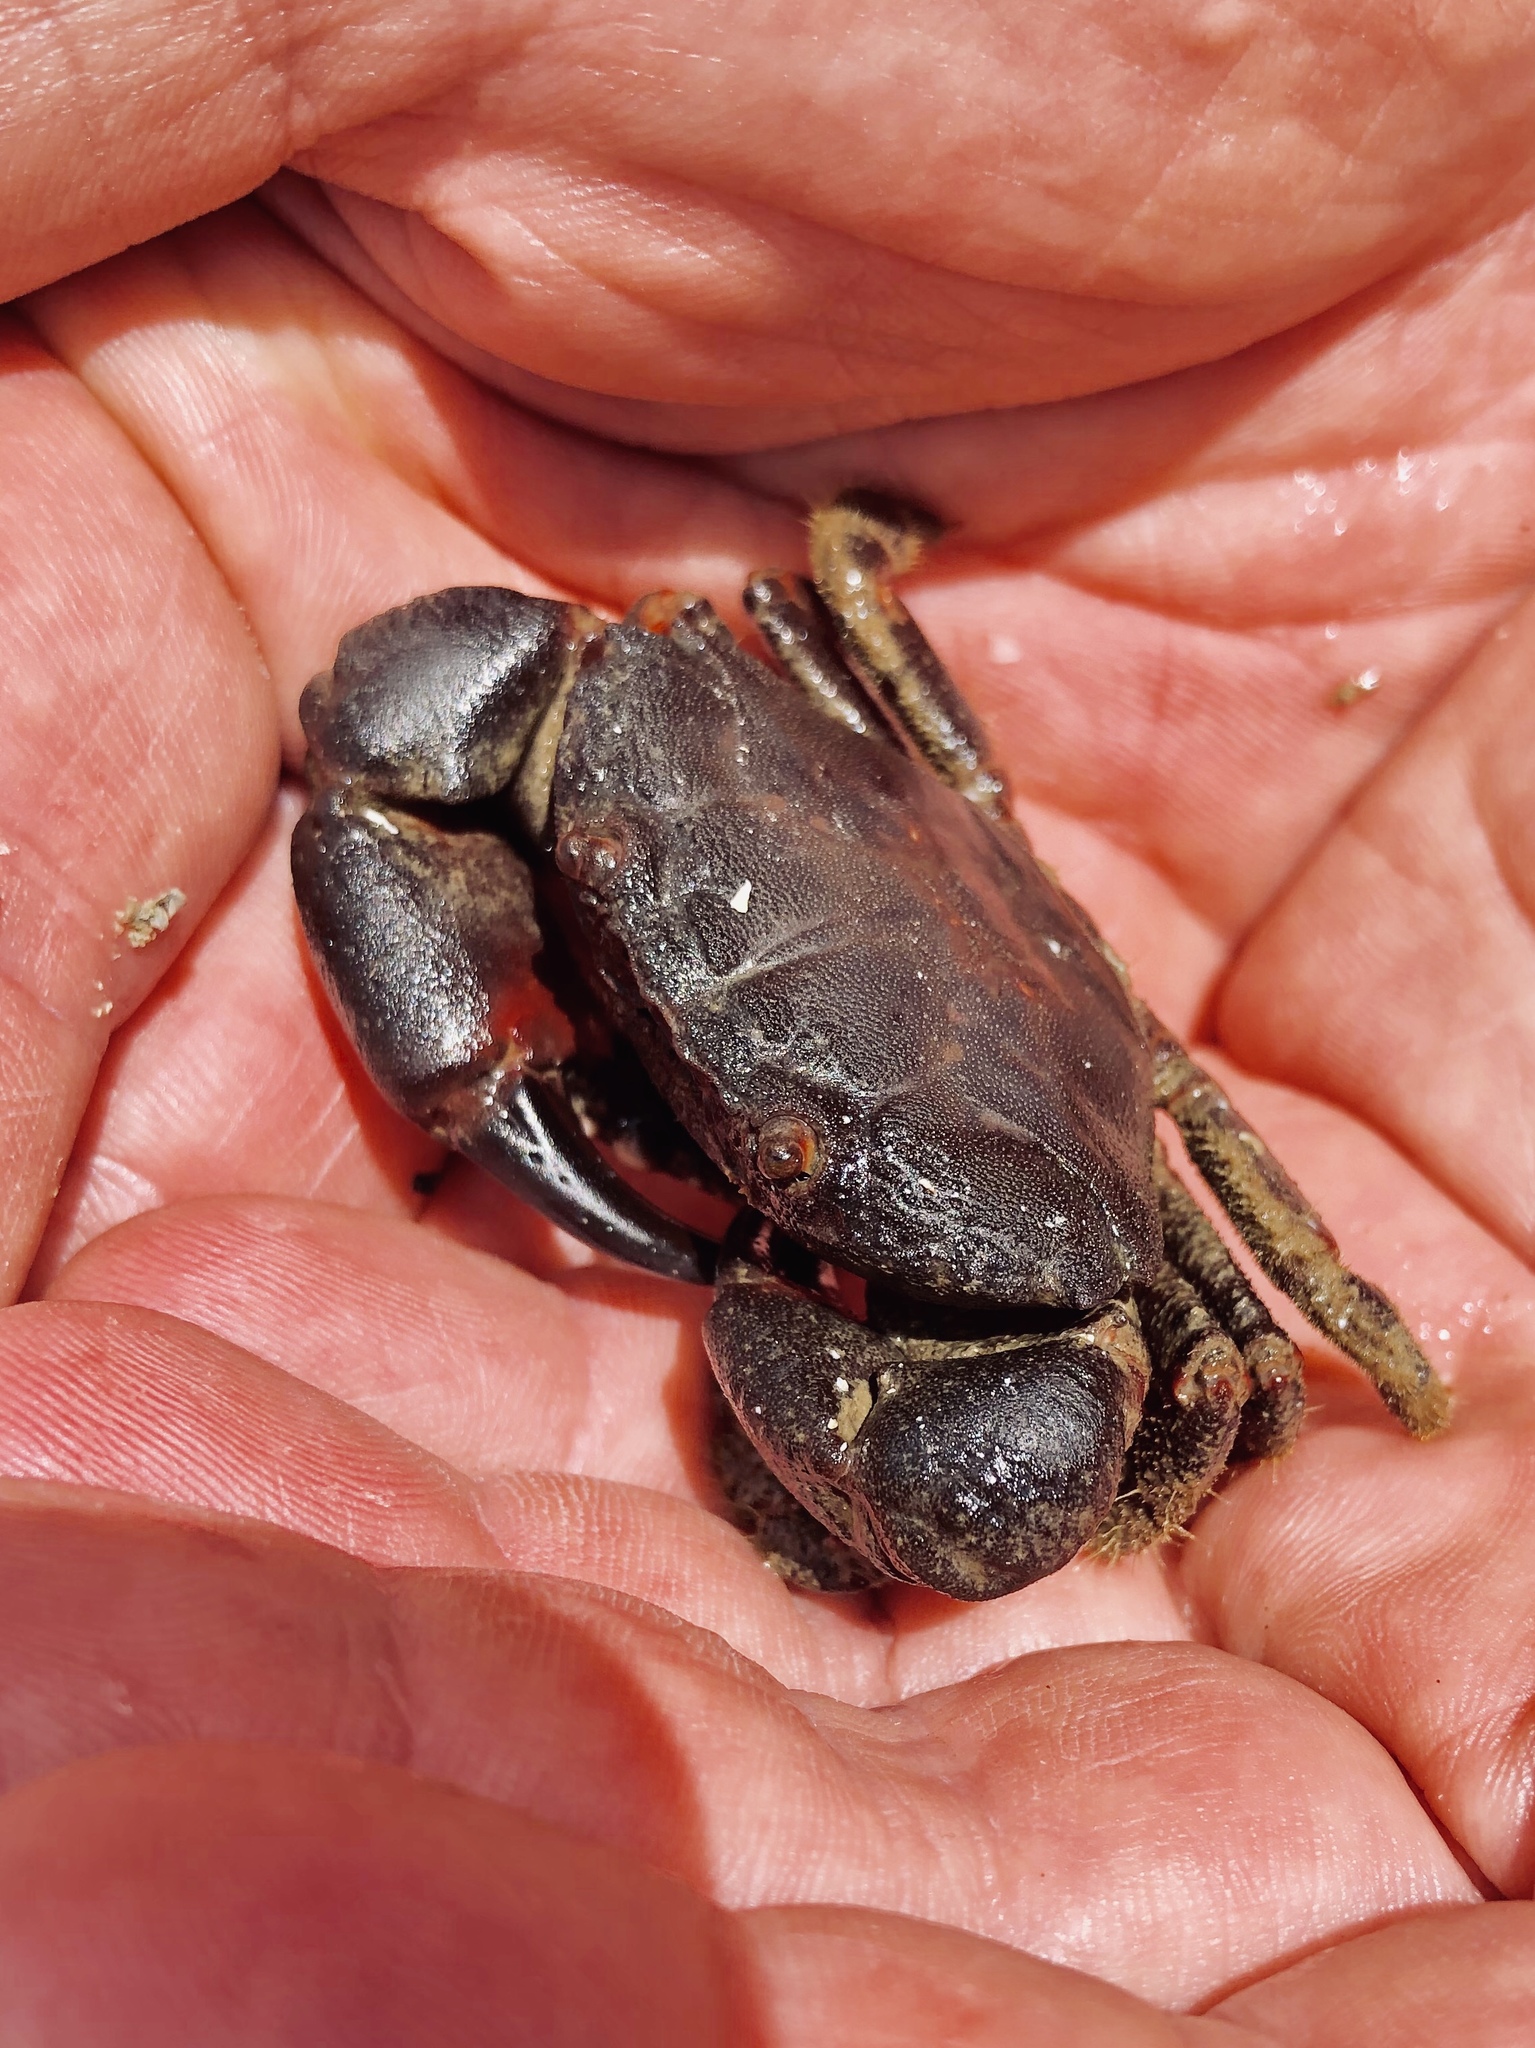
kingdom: Animalia
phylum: Arthropoda
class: Malacostraca
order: Decapoda
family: Oziidae
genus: Ozius
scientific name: Ozius deplanatus
